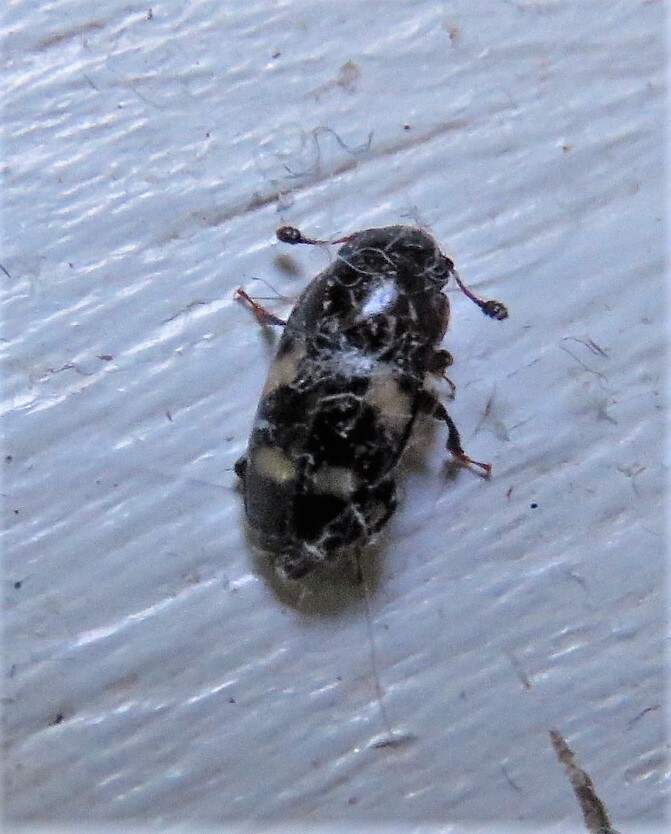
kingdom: Animalia
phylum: Arthropoda
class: Insecta
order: Coleoptera
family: Nitidulidae
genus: Glischrochilus
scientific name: Glischrochilus quadrisignatus
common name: Picnic beetle
